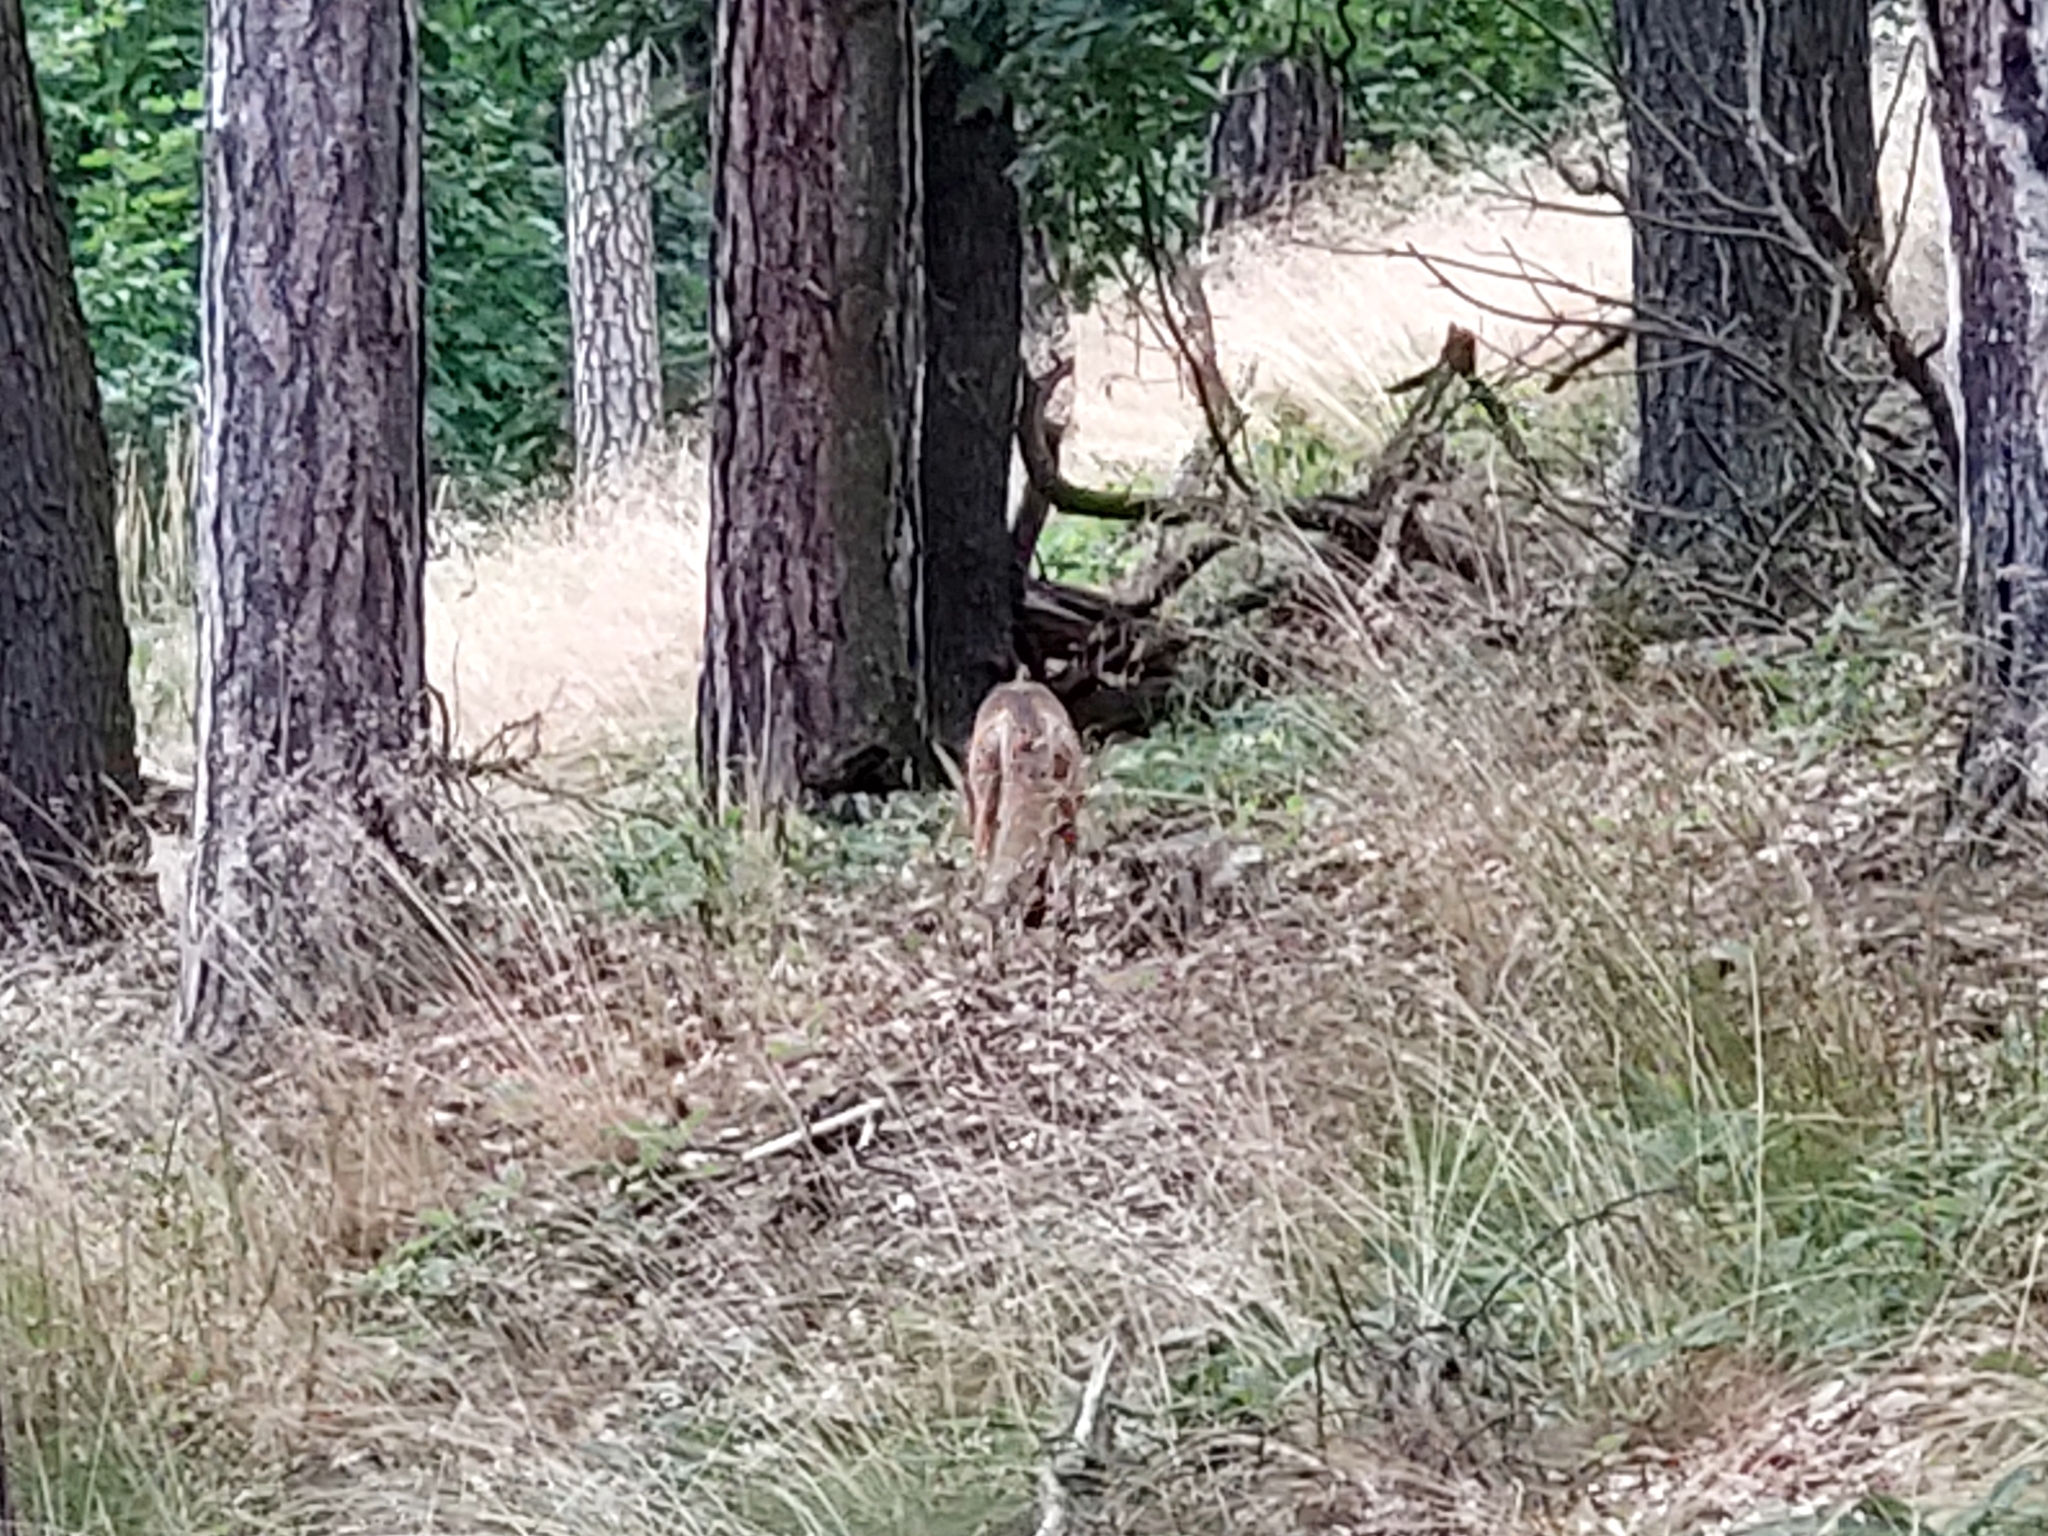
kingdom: Animalia
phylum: Chordata
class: Mammalia
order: Carnivora
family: Canidae
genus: Vulpes
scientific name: Vulpes vulpes
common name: Red fox
